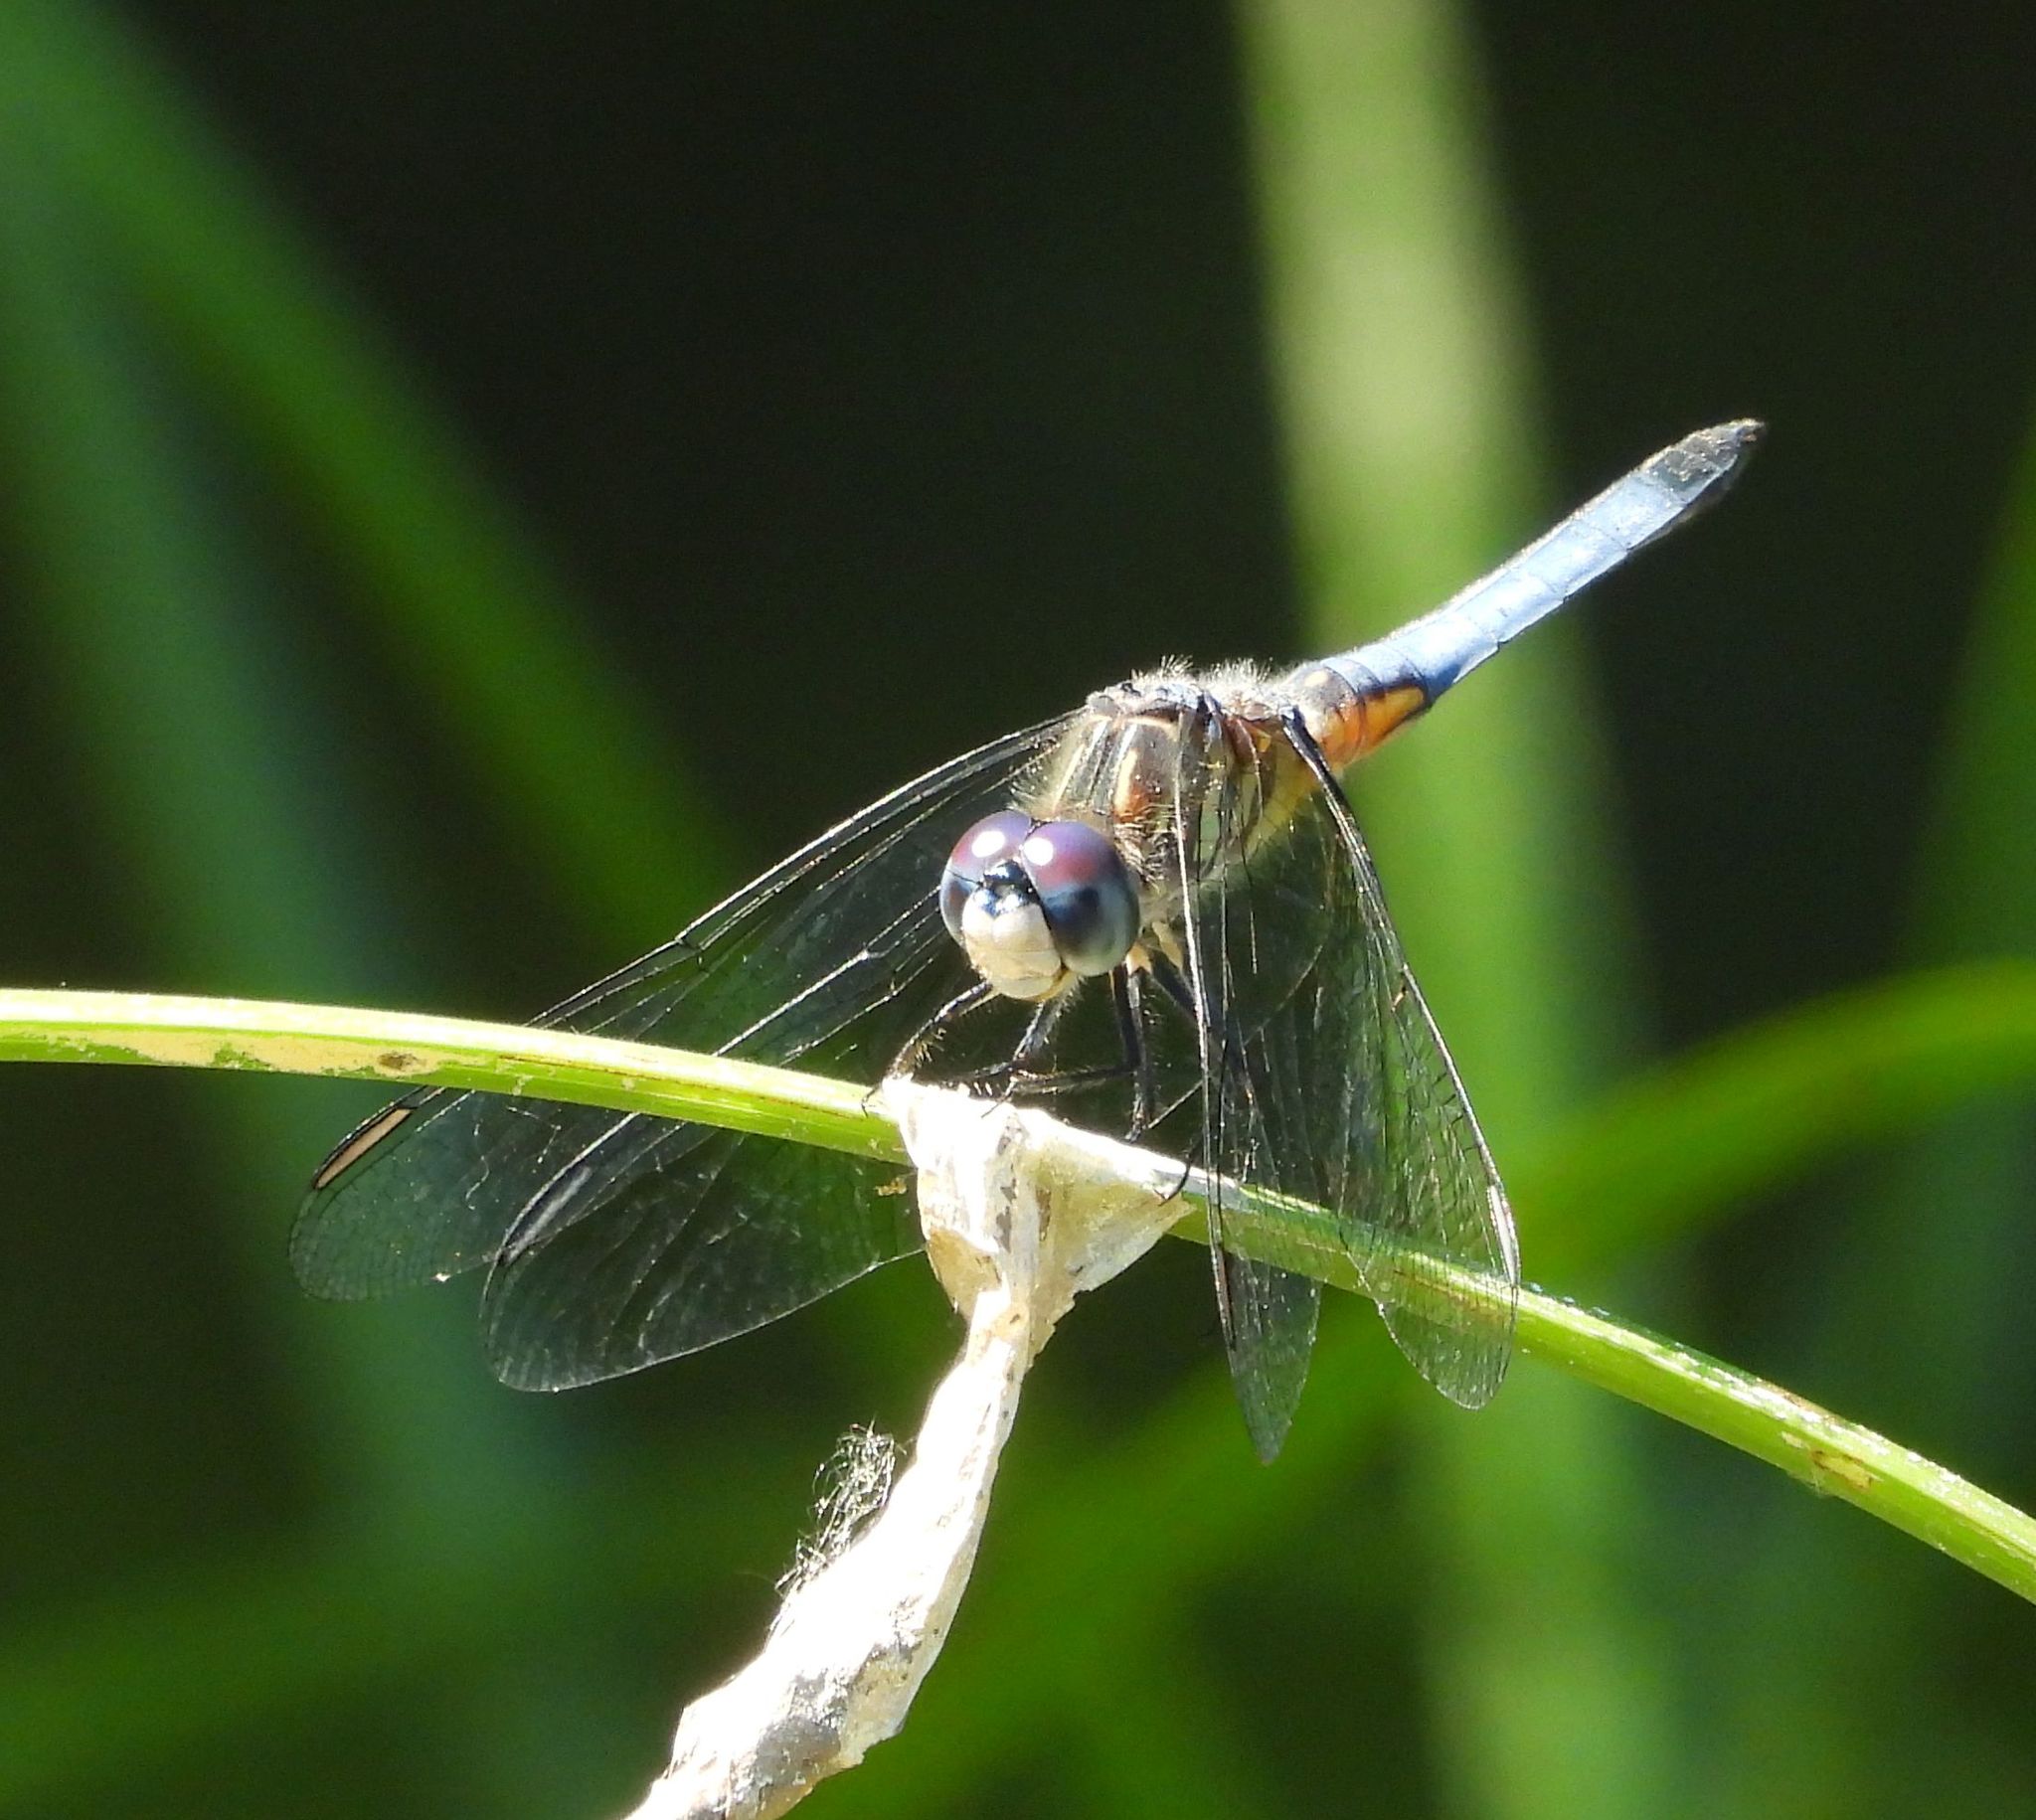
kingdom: Animalia
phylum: Arthropoda
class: Insecta
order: Odonata
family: Libellulidae
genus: Pachydiplax
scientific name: Pachydiplax longipennis
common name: Blue dasher
